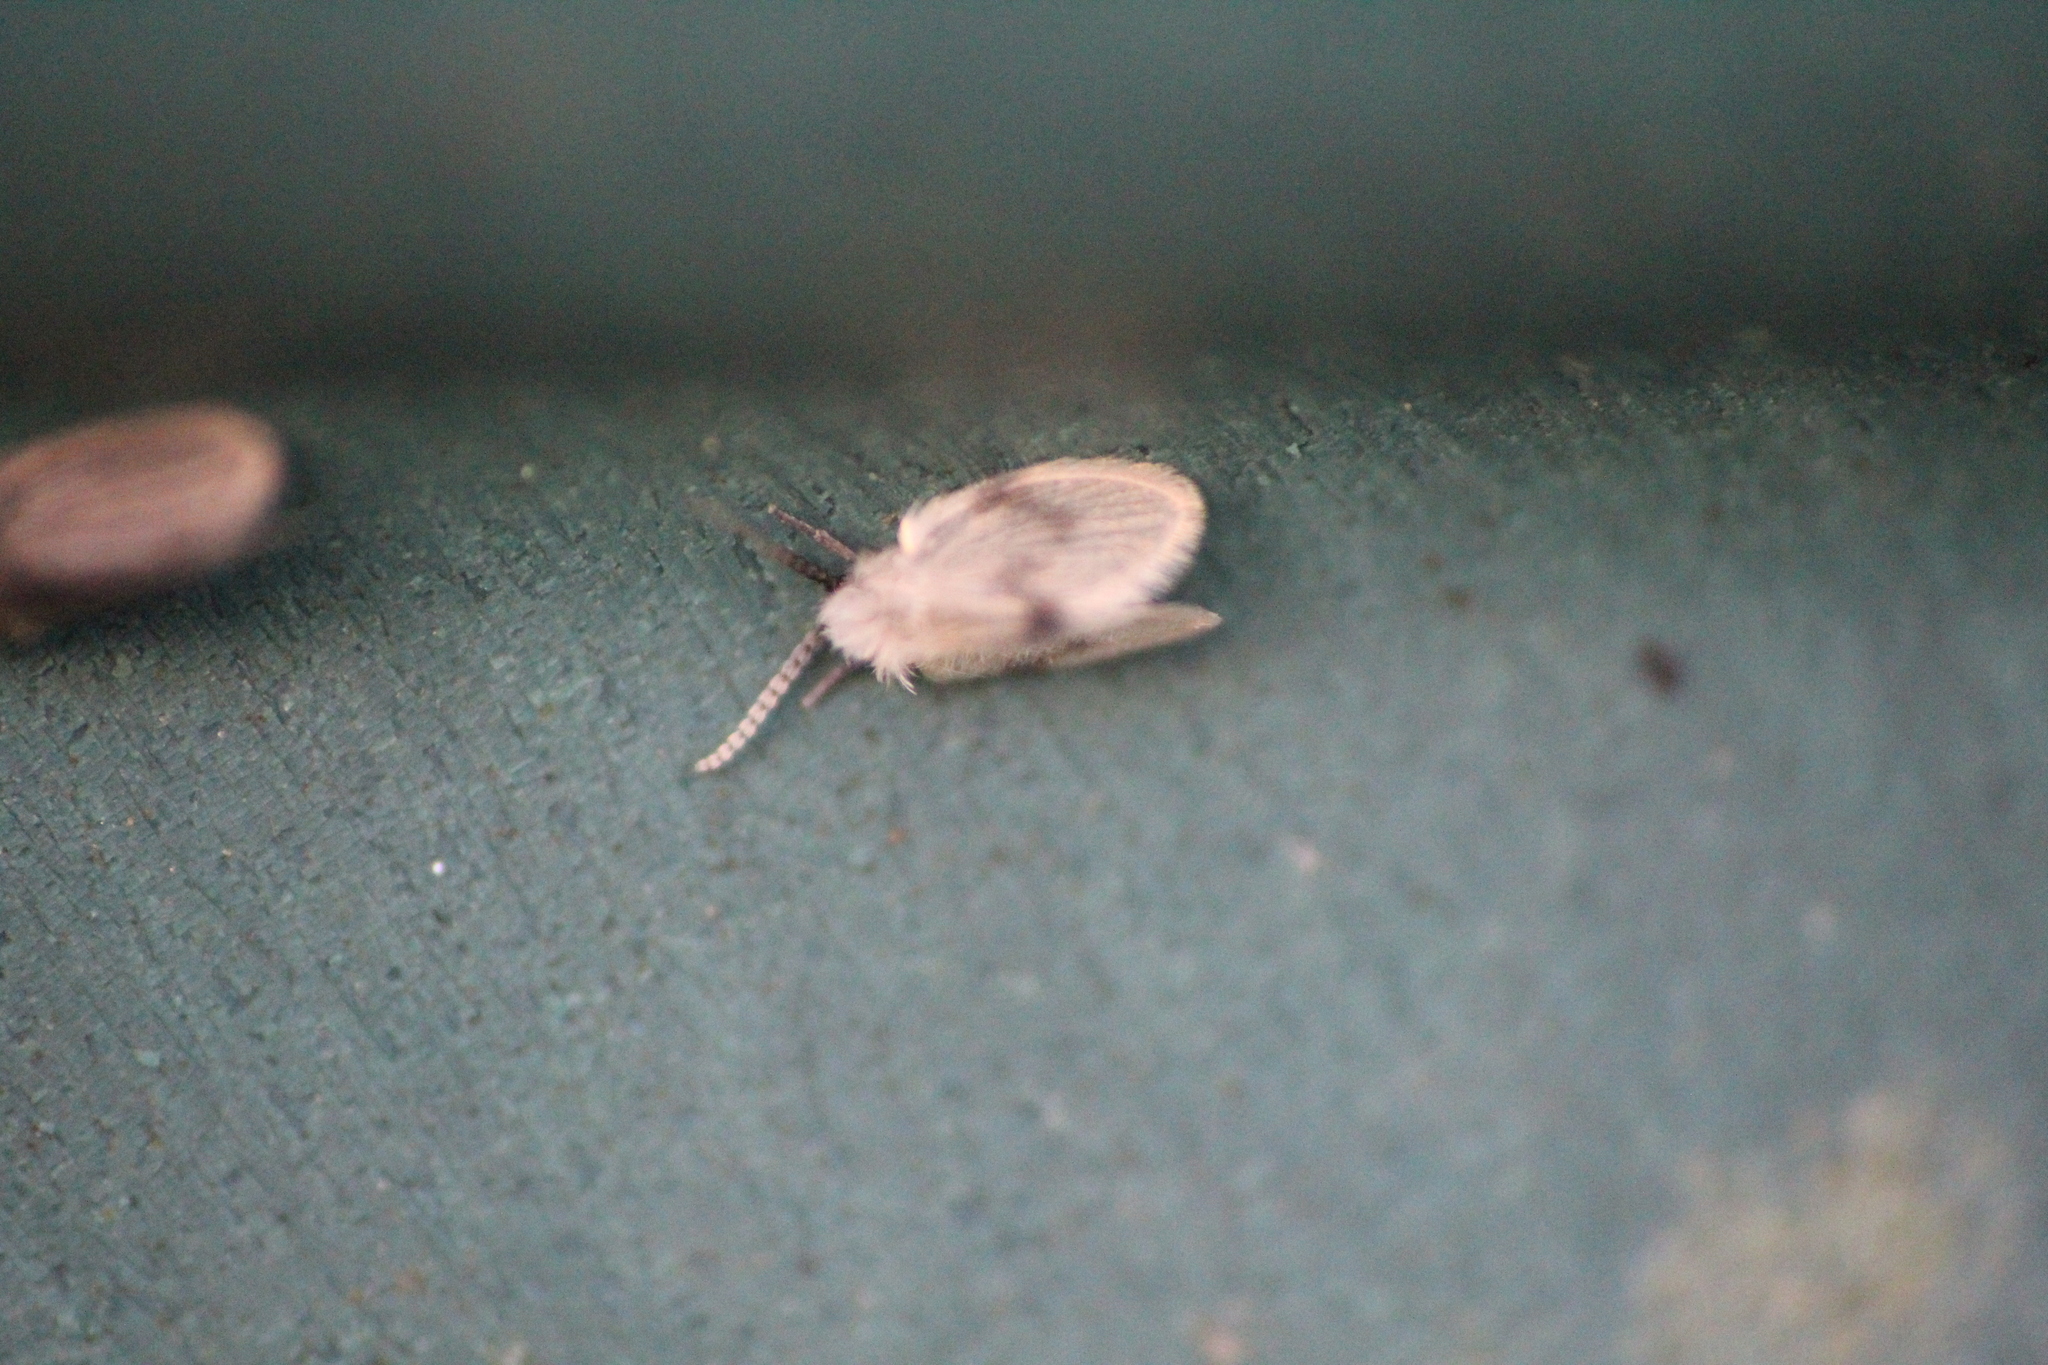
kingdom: Animalia
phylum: Arthropoda
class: Insecta
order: Diptera
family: Psychodidae
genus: Psychoda
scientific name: Psychoda sigma
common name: Moth fly
